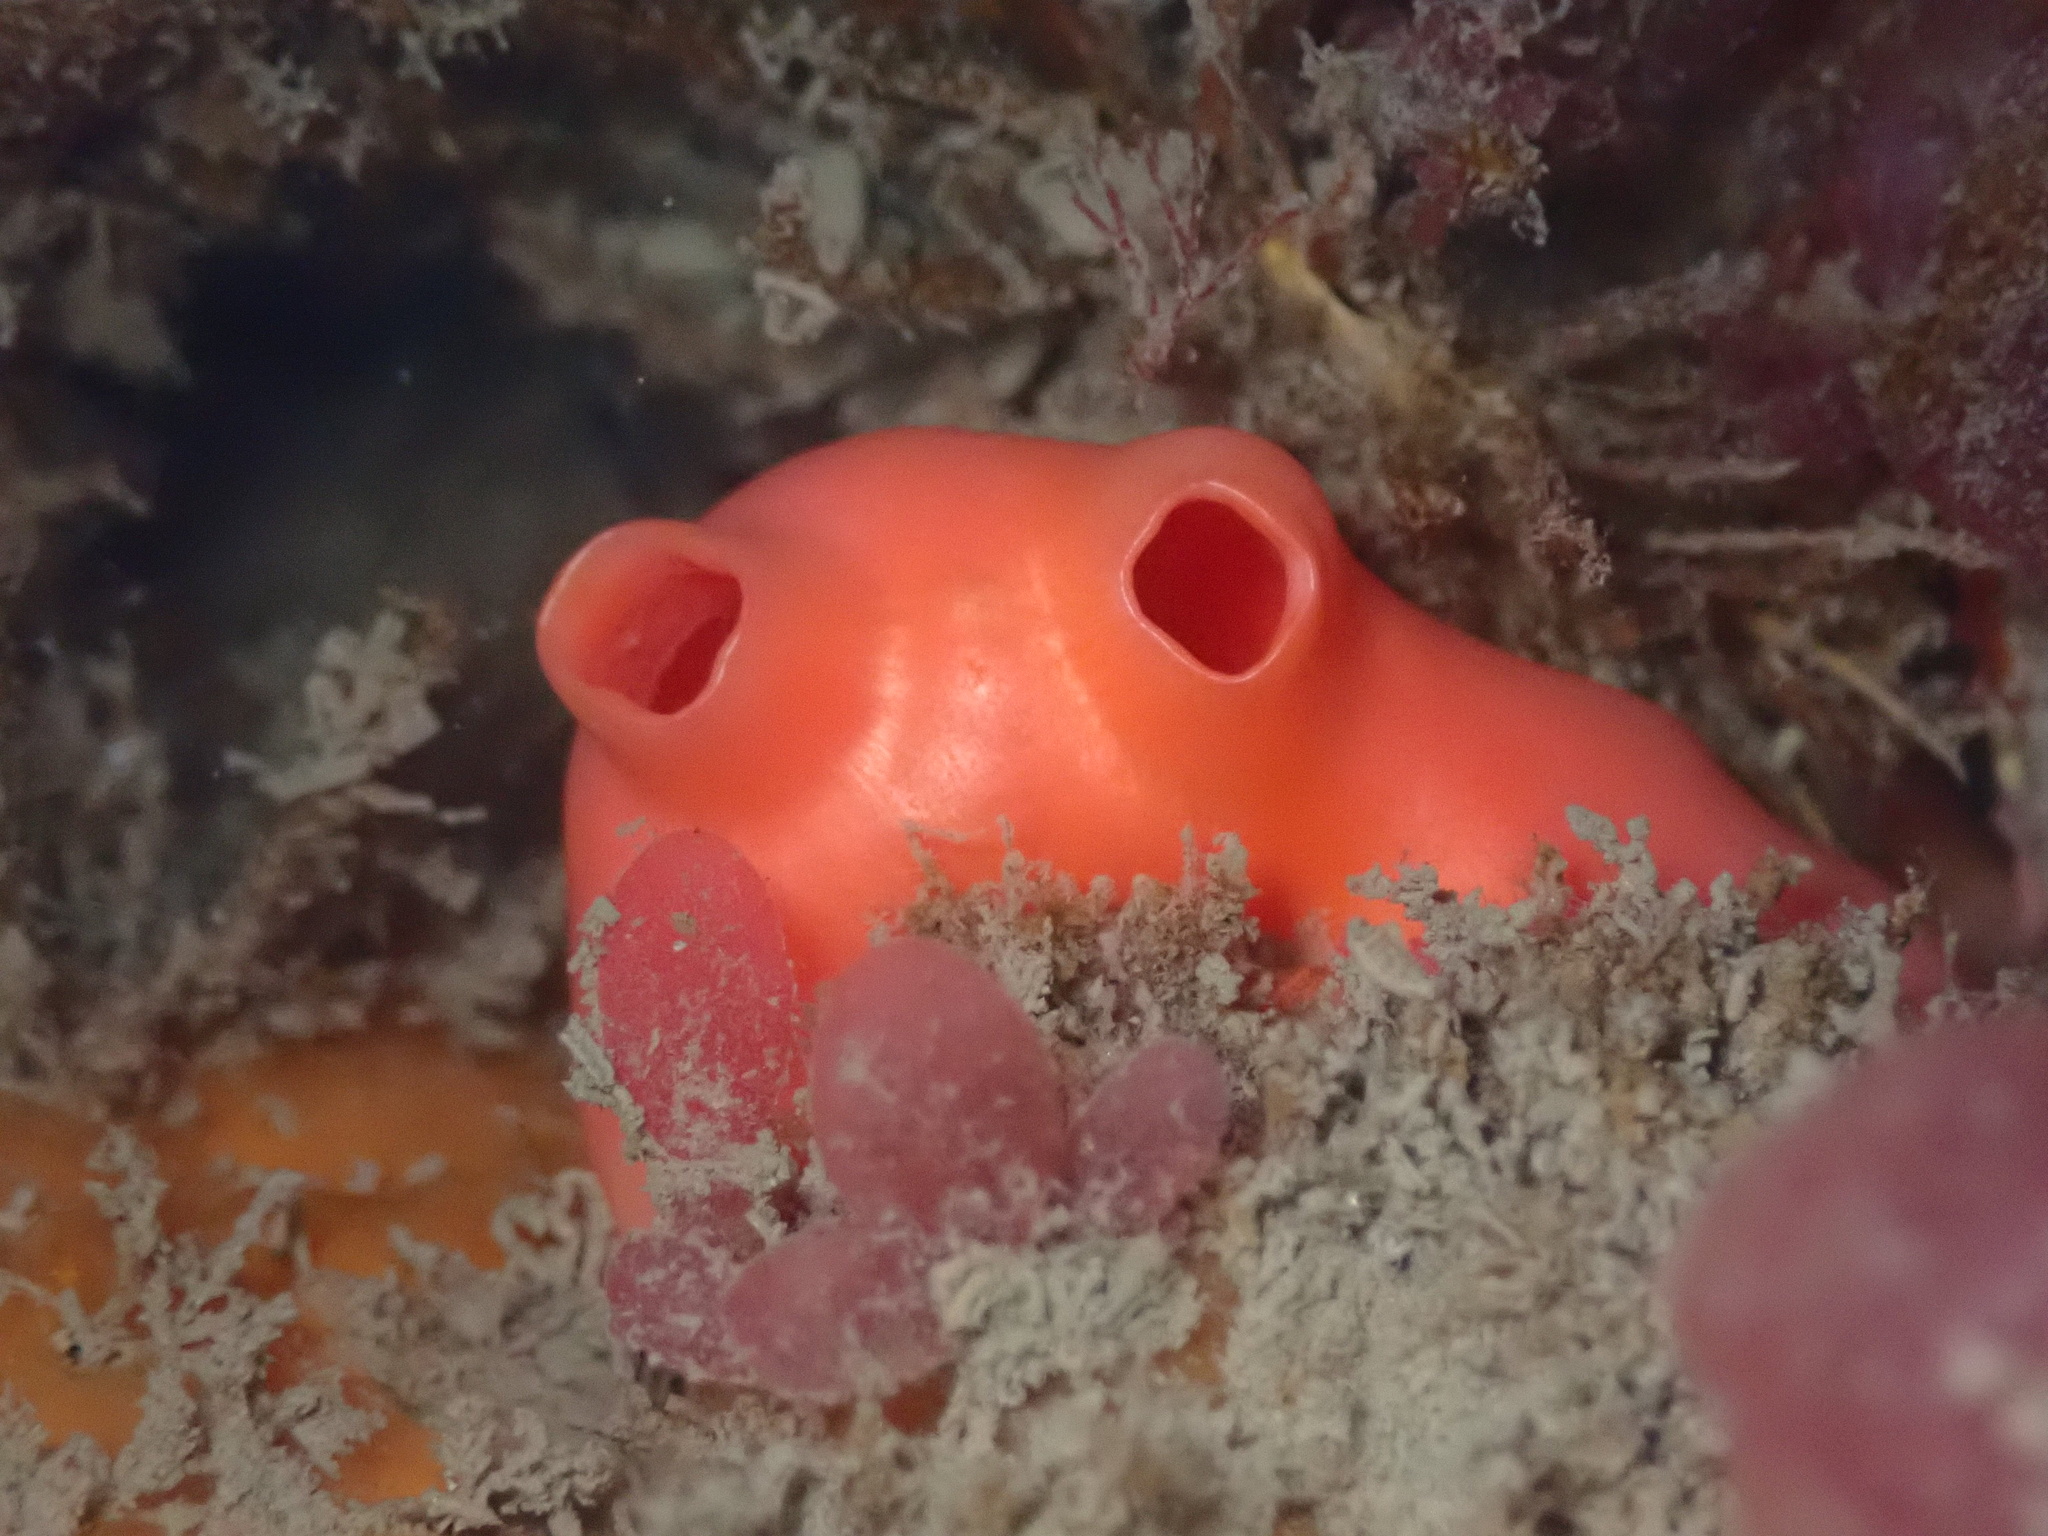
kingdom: Animalia
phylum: Chordata
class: Ascidiacea
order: Stolidobranchia
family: Styelidae
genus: Cnemidocarpa
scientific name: Cnemidocarpa finmarkiensis
